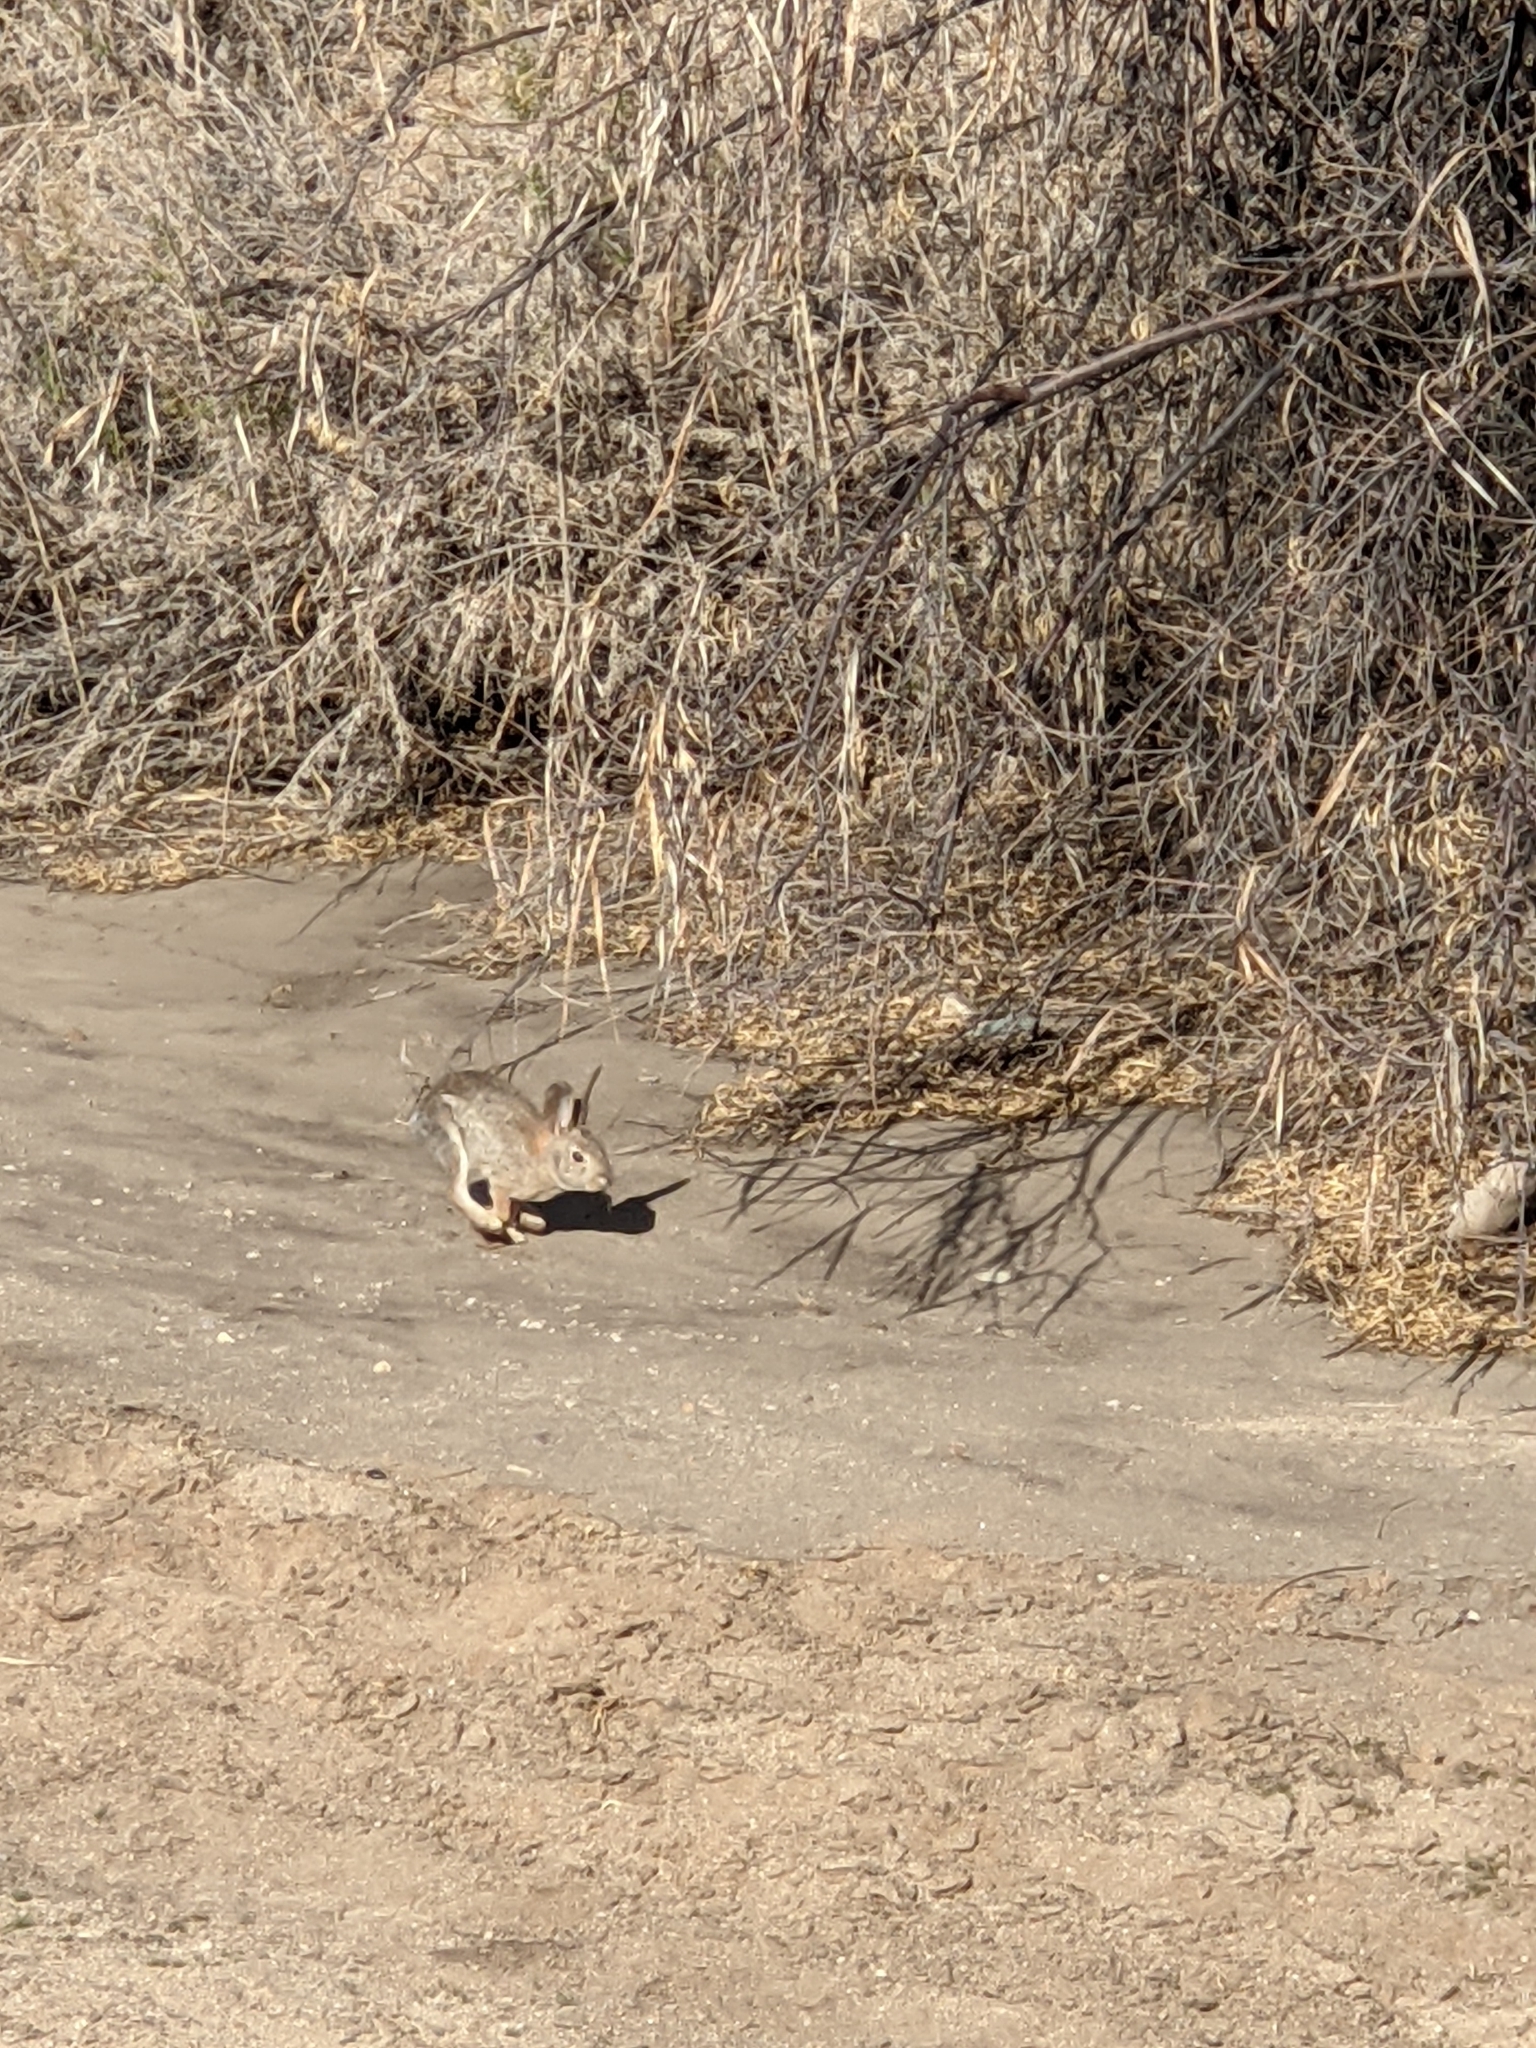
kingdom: Animalia
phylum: Chordata
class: Mammalia
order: Lagomorpha
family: Leporidae
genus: Sylvilagus
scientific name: Sylvilagus audubonii
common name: Desert cottontail
